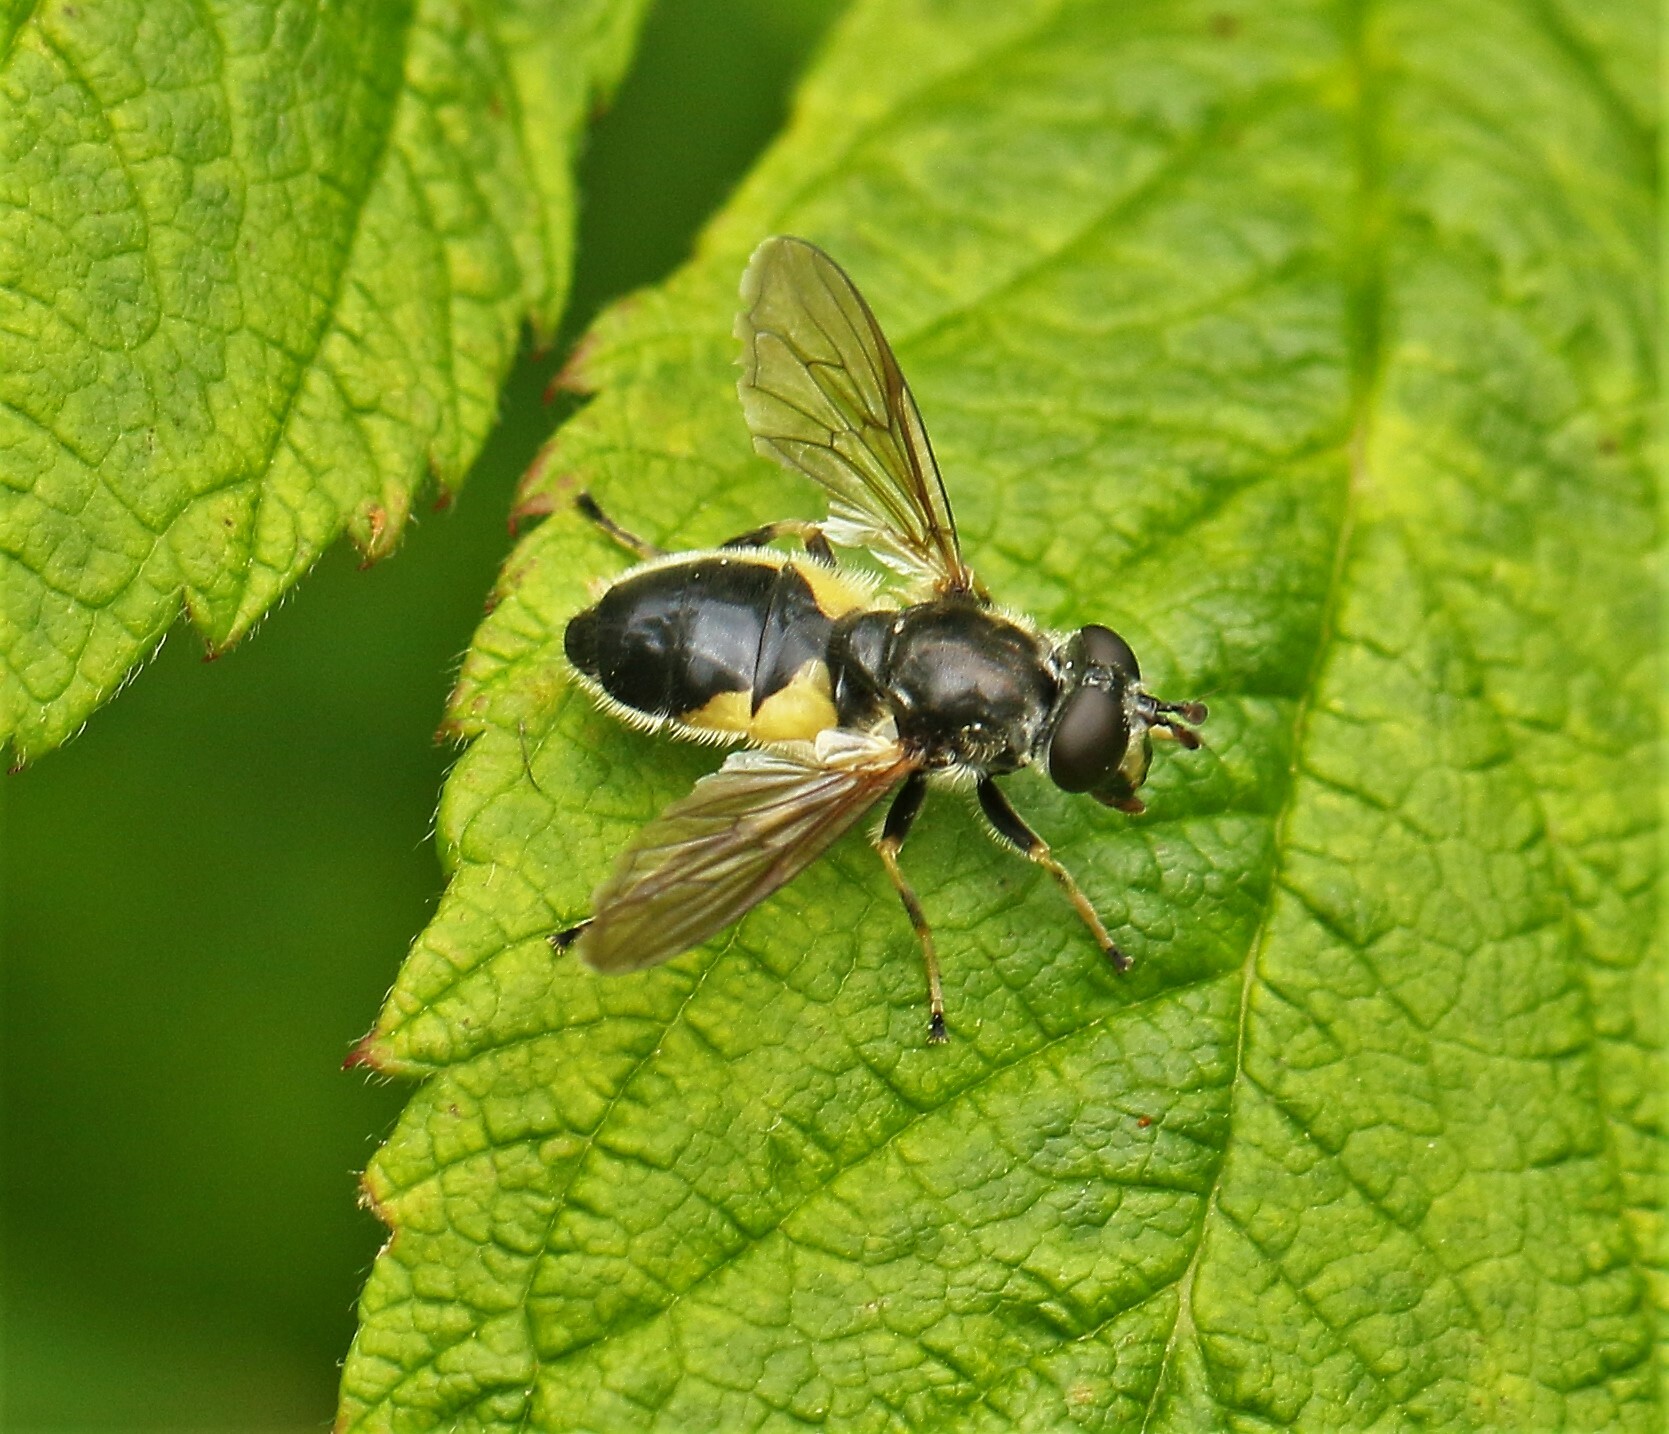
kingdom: Animalia
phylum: Arthropoda
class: Insecta
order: Diptera
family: Syrphidae
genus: Blera
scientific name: Blera confusa
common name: Confusing wood fly
